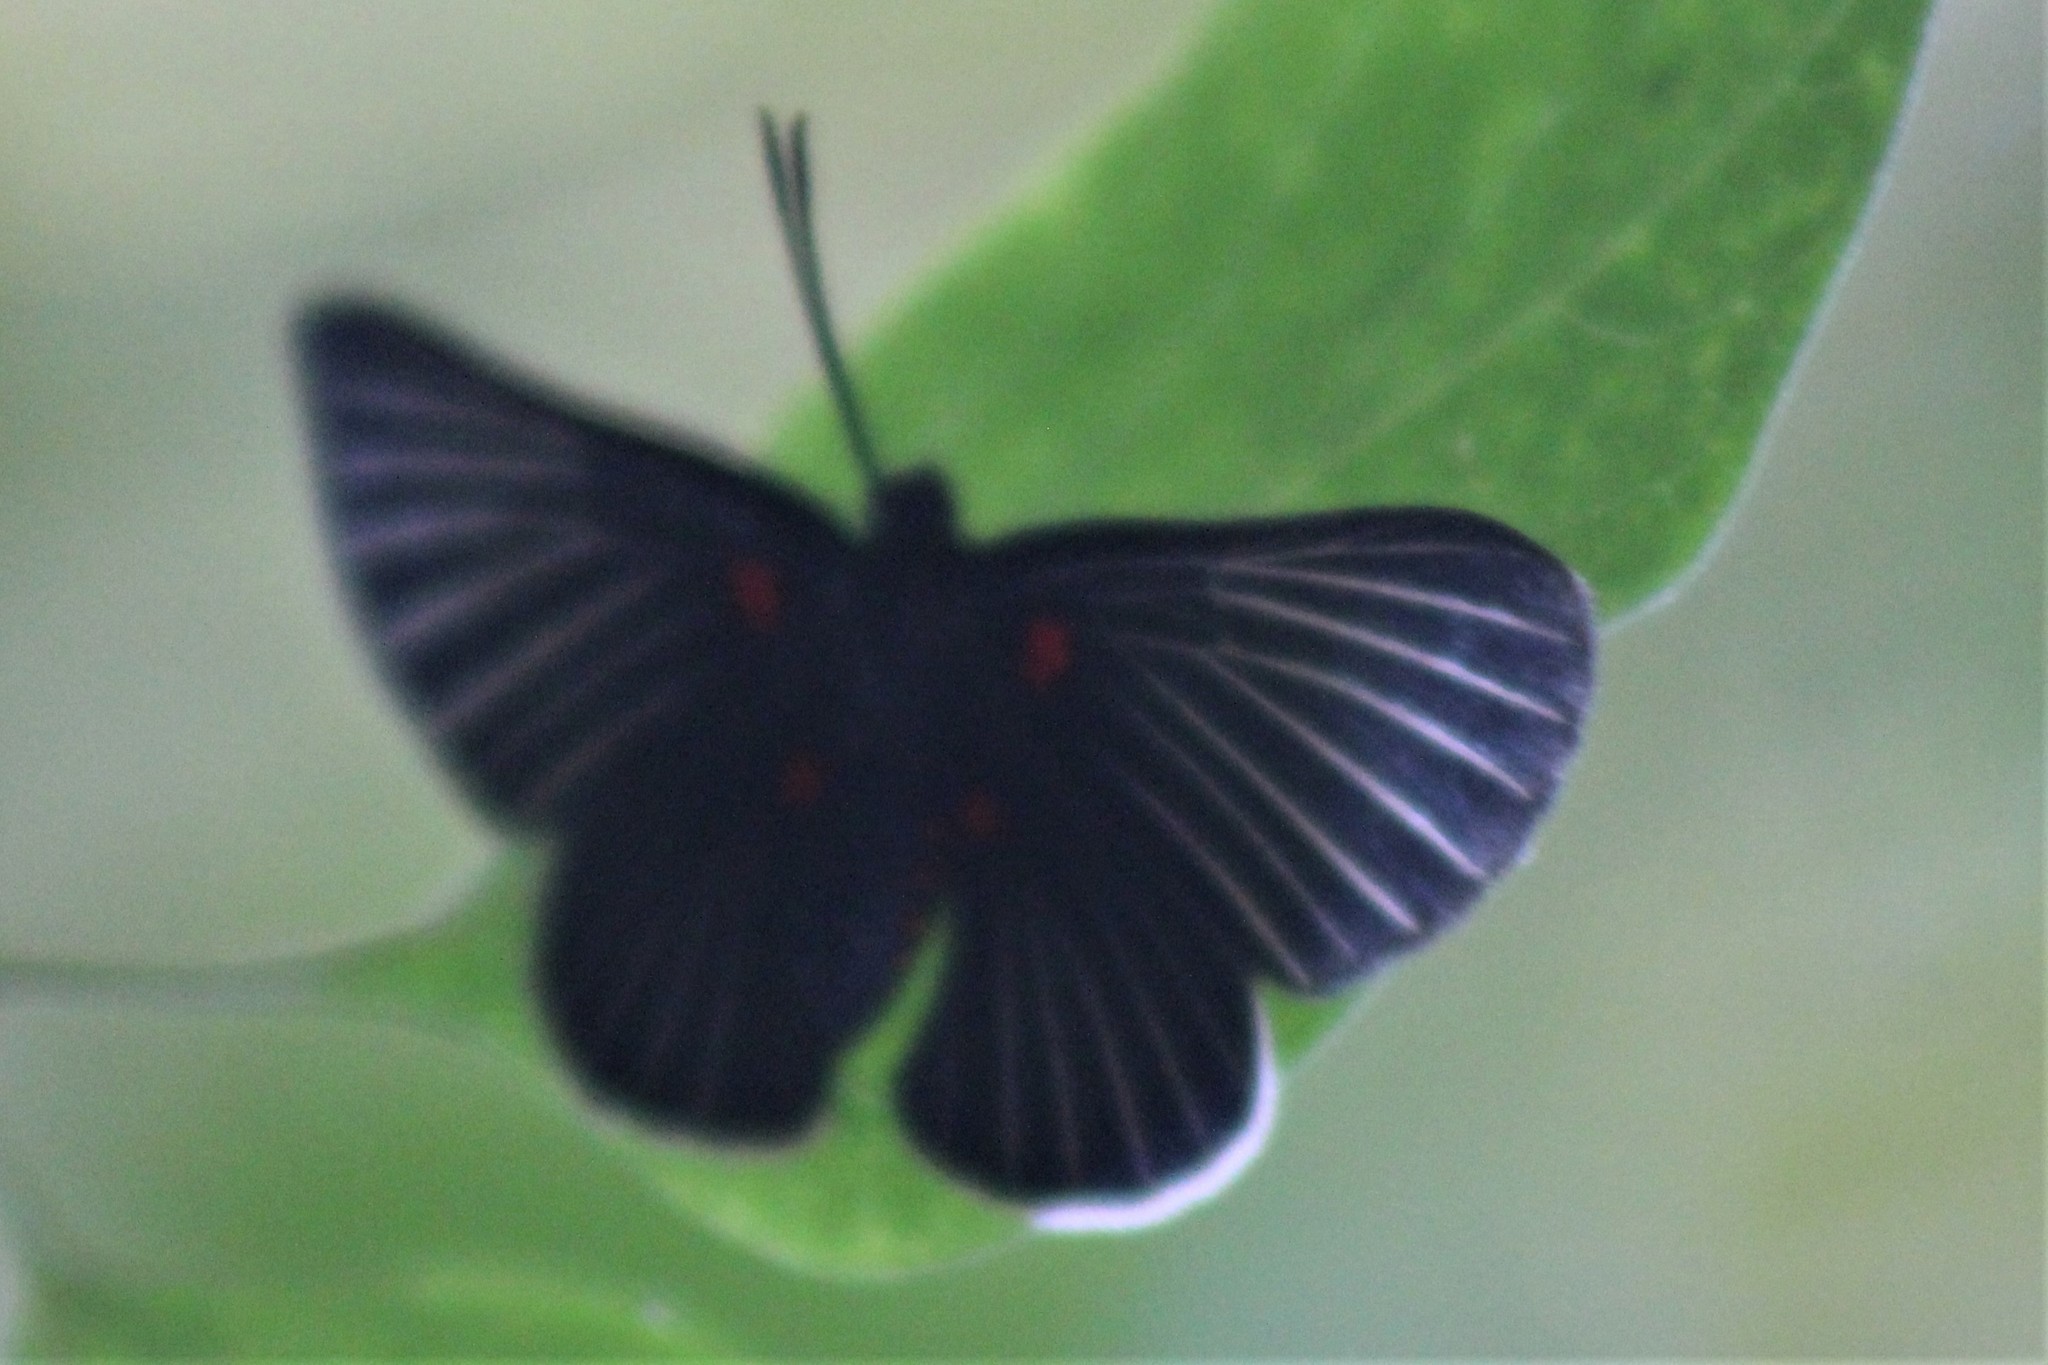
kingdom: Animalia
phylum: Arthropoda
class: Insecta
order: Lepidoptera
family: Lycaenidae
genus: Melanis
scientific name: Melanis
